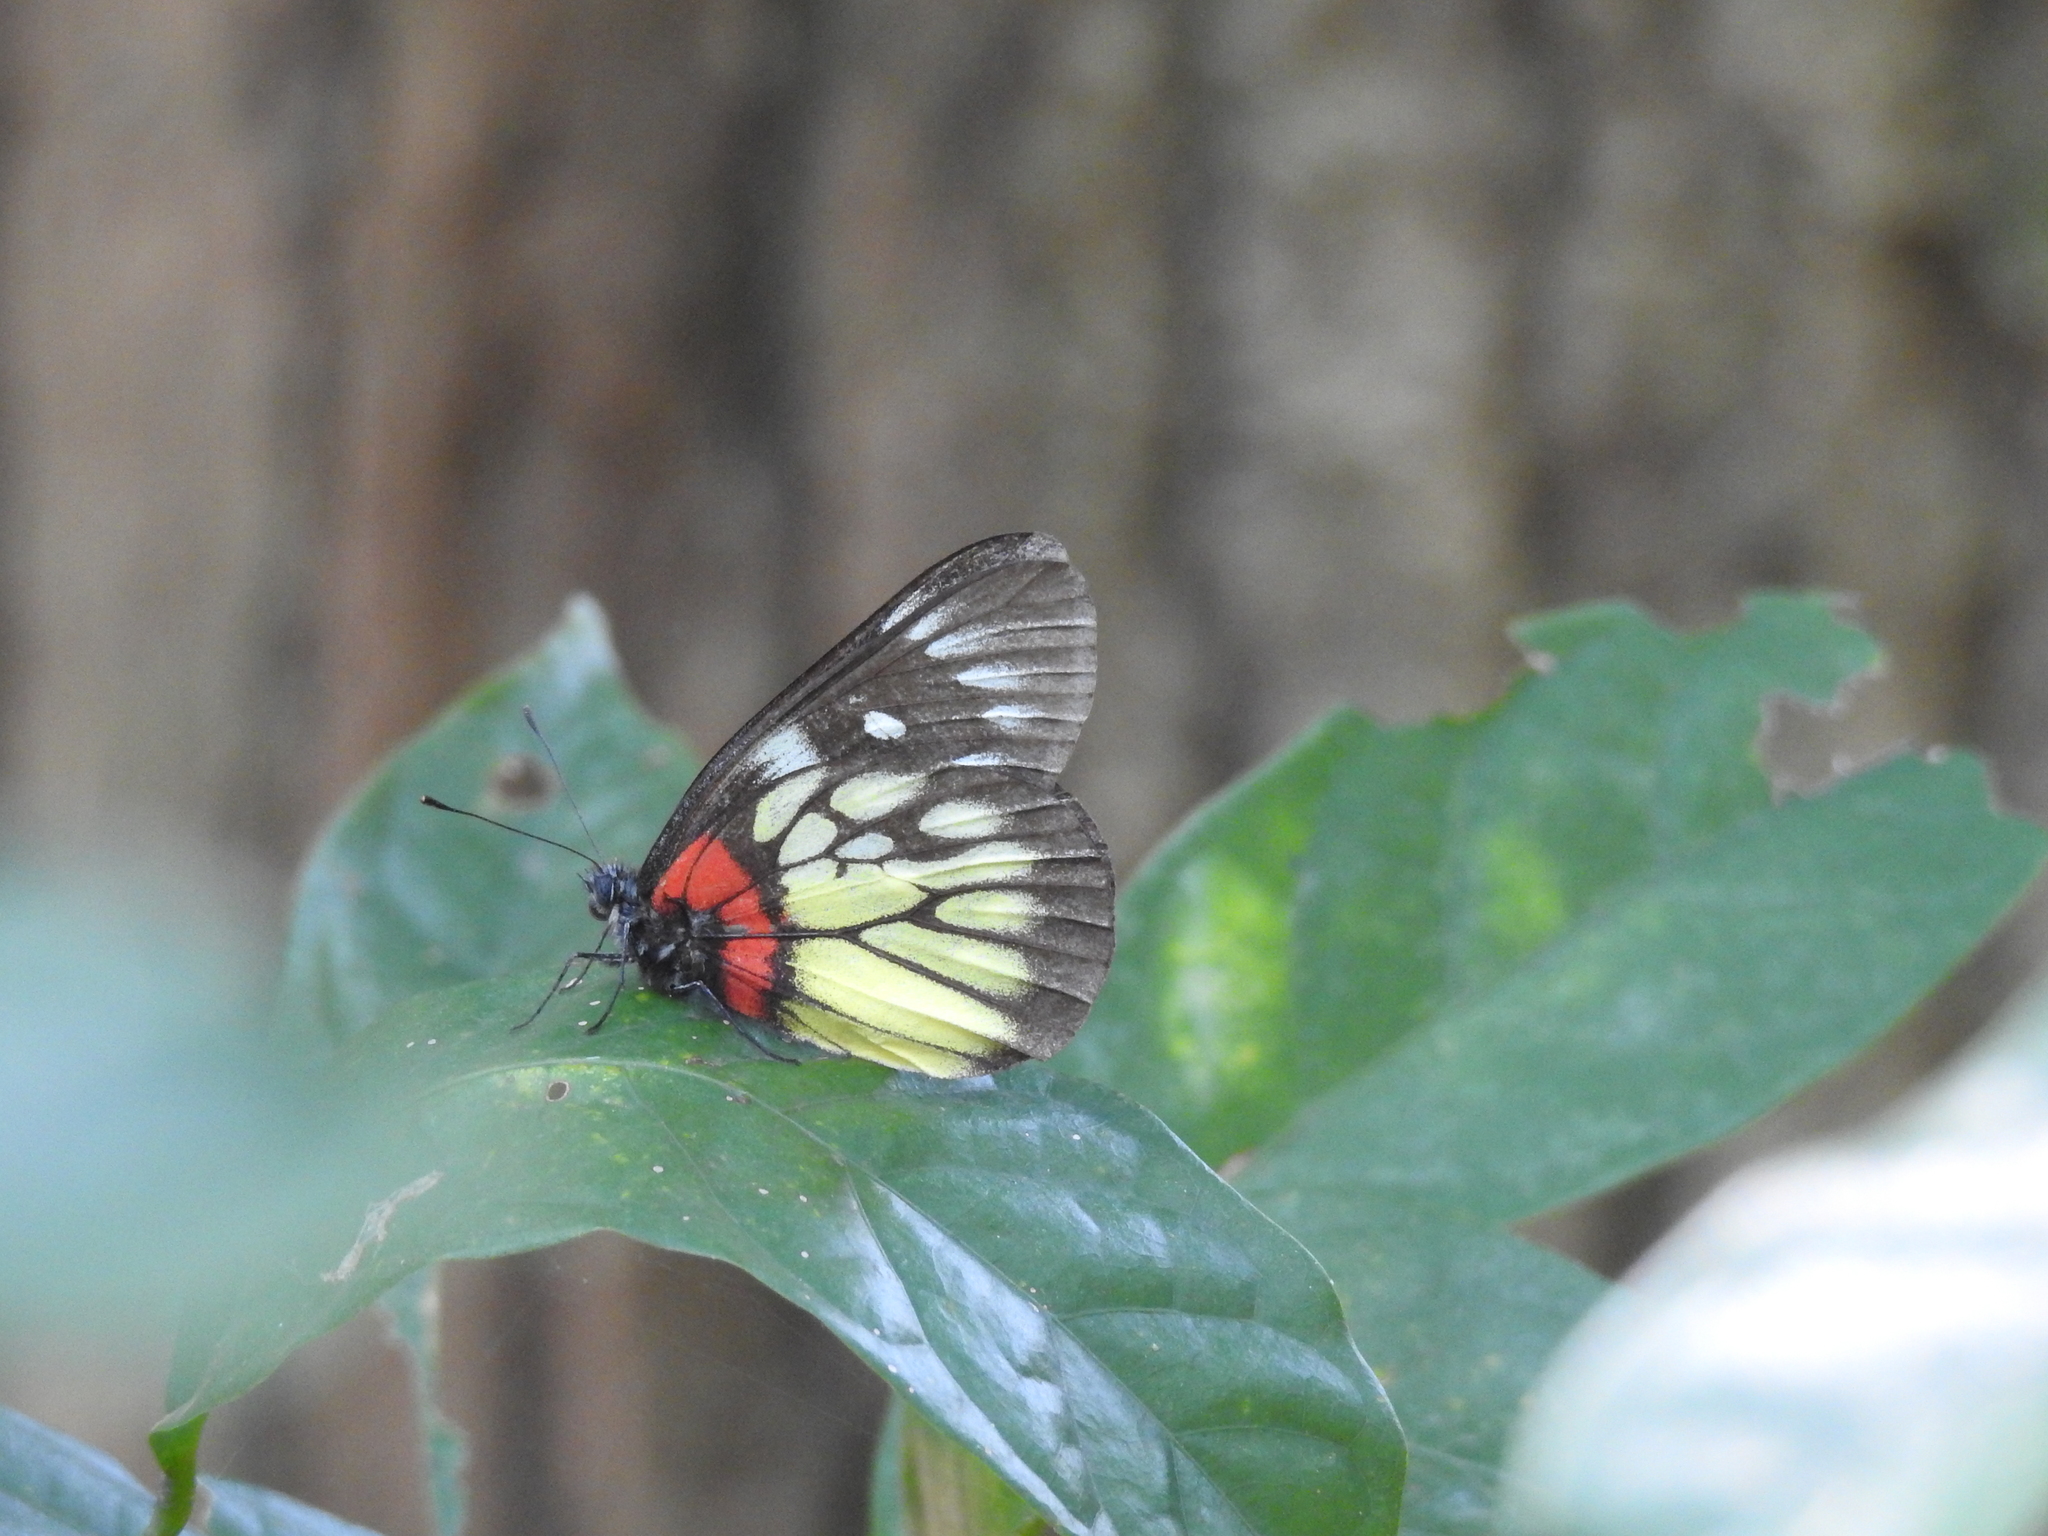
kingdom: Animalia
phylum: Arthropoda
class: Insecta
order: Lepidoptera
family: Pieridae
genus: Delias
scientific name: Delias pasithoe
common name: Red-base jezebel
